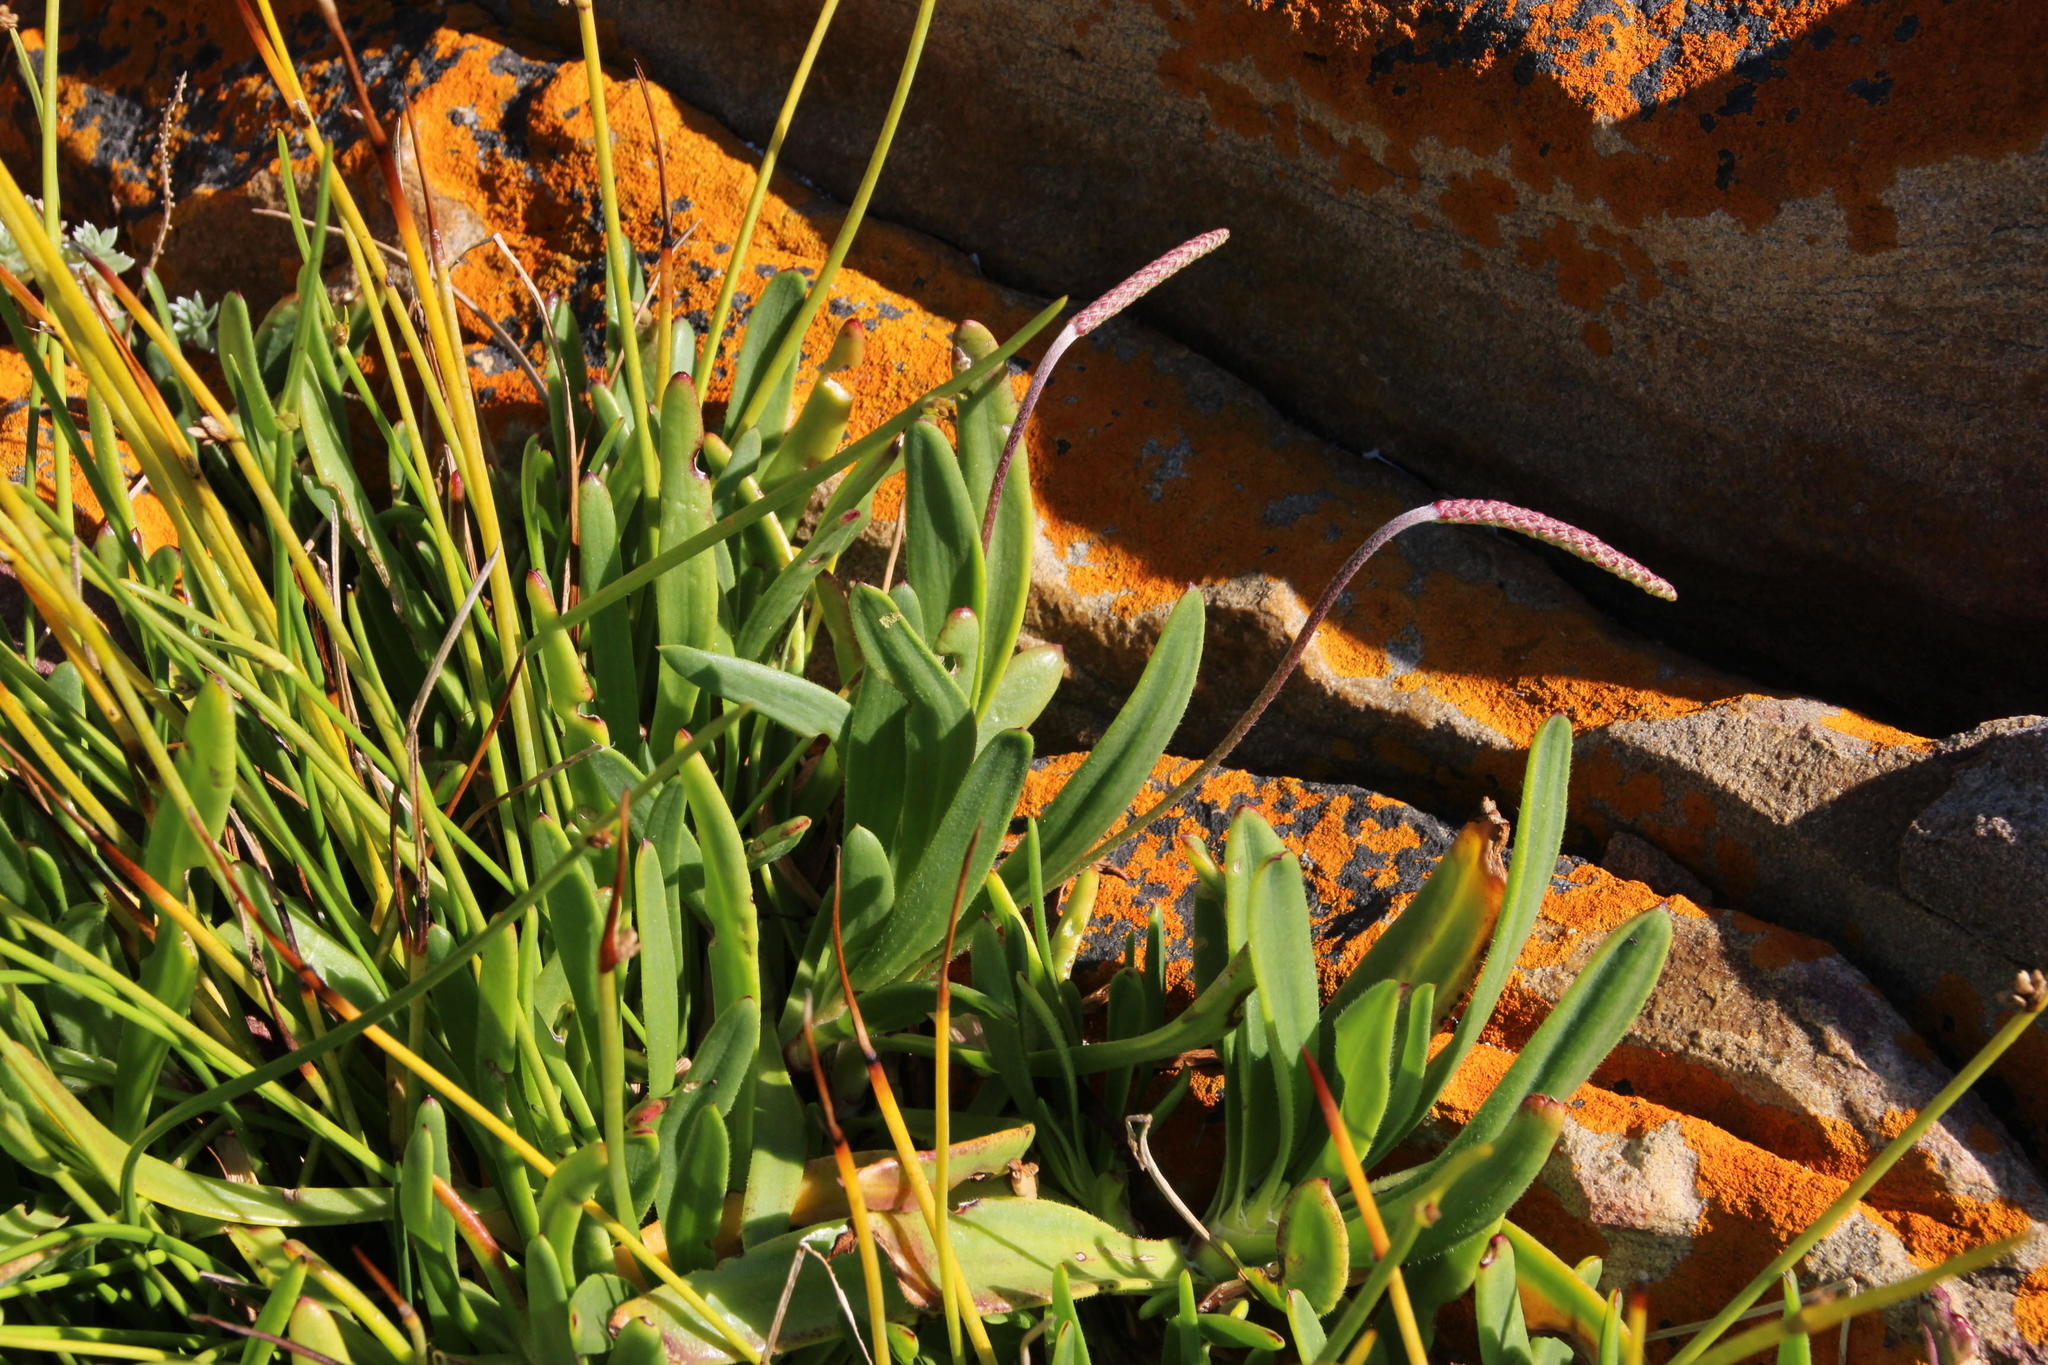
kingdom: Plantae
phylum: Tracheophyta
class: Magnoliopsida
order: Lamiales
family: Plantaginaceae
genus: Plantago
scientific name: Plantago carnosa
